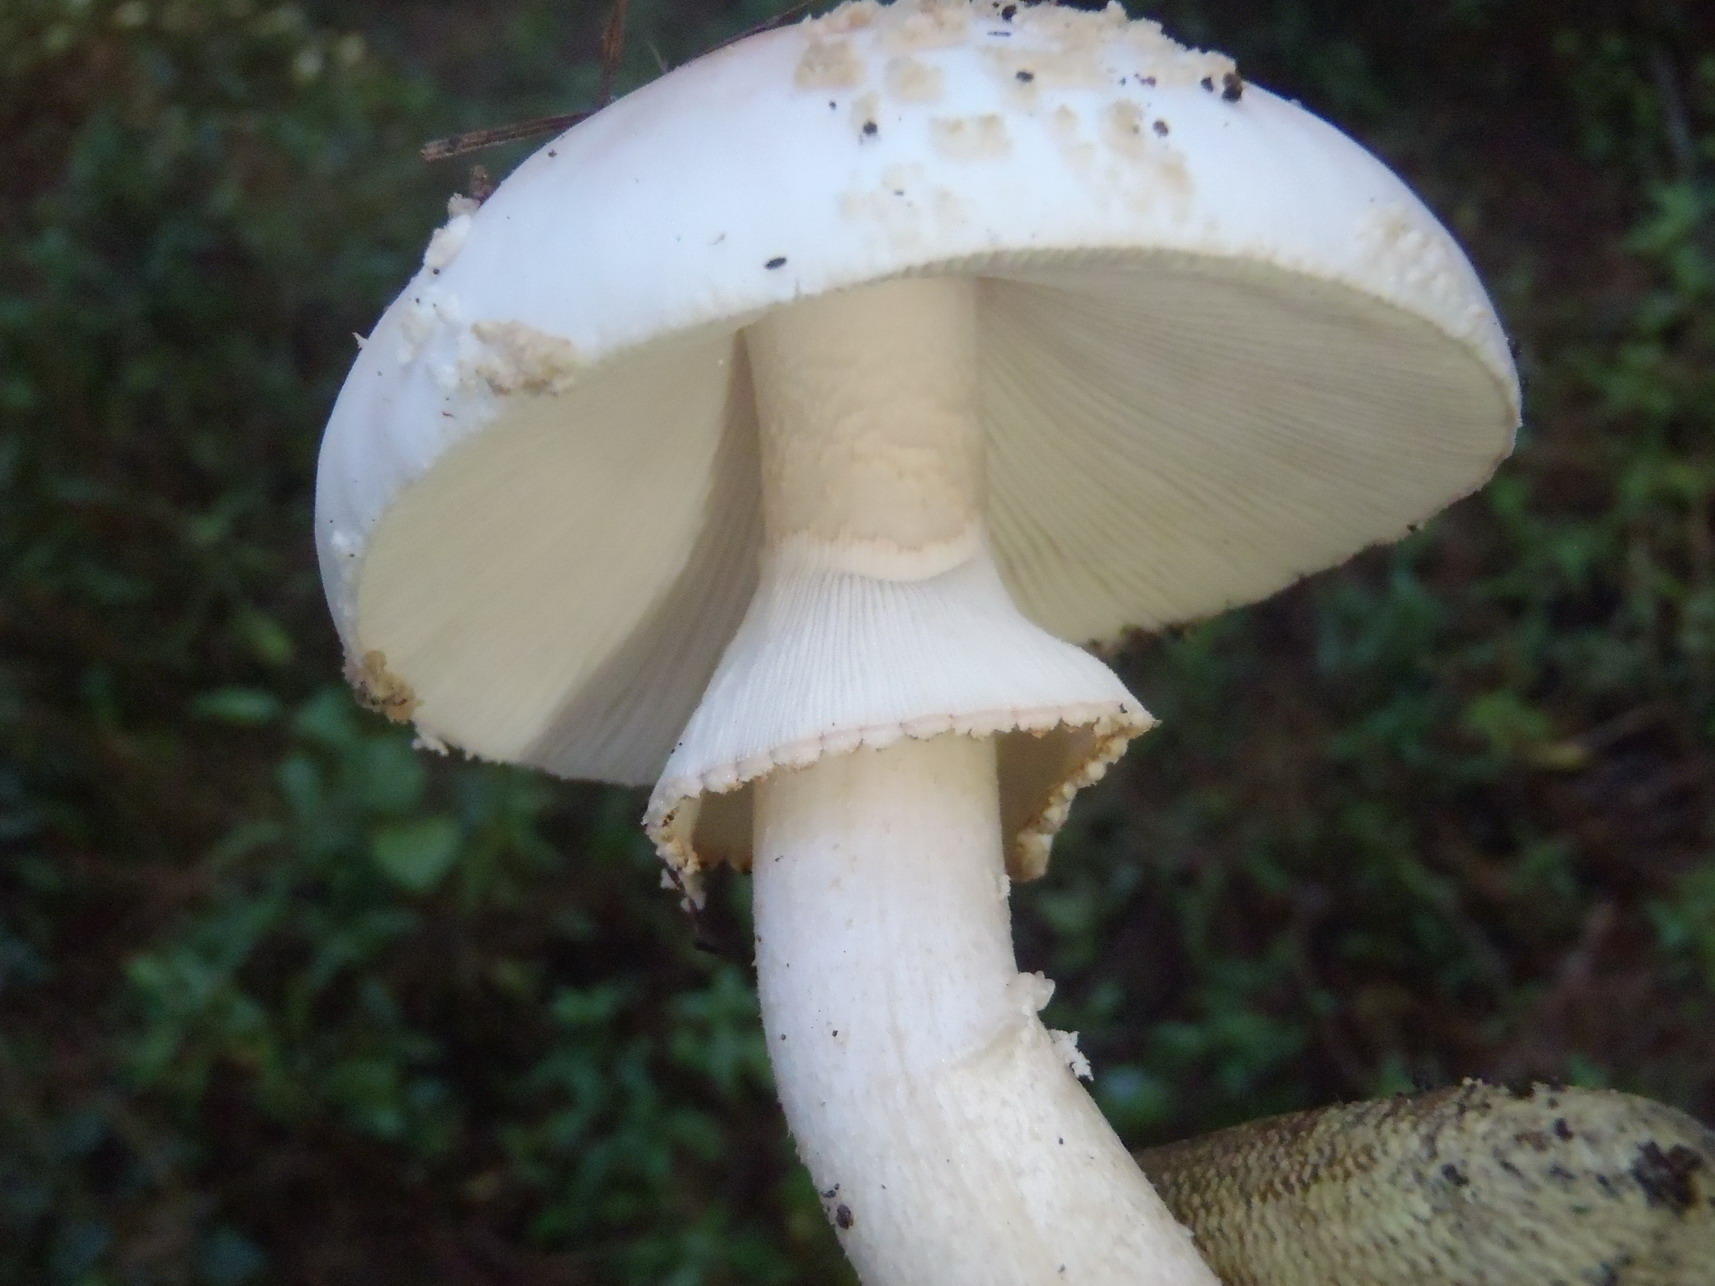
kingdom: Fungi
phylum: Basidiomycota
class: Agaricomycetes
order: Agaricales
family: Amanitaceae
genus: Amanita
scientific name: Amanita rubescens
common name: Blusher
